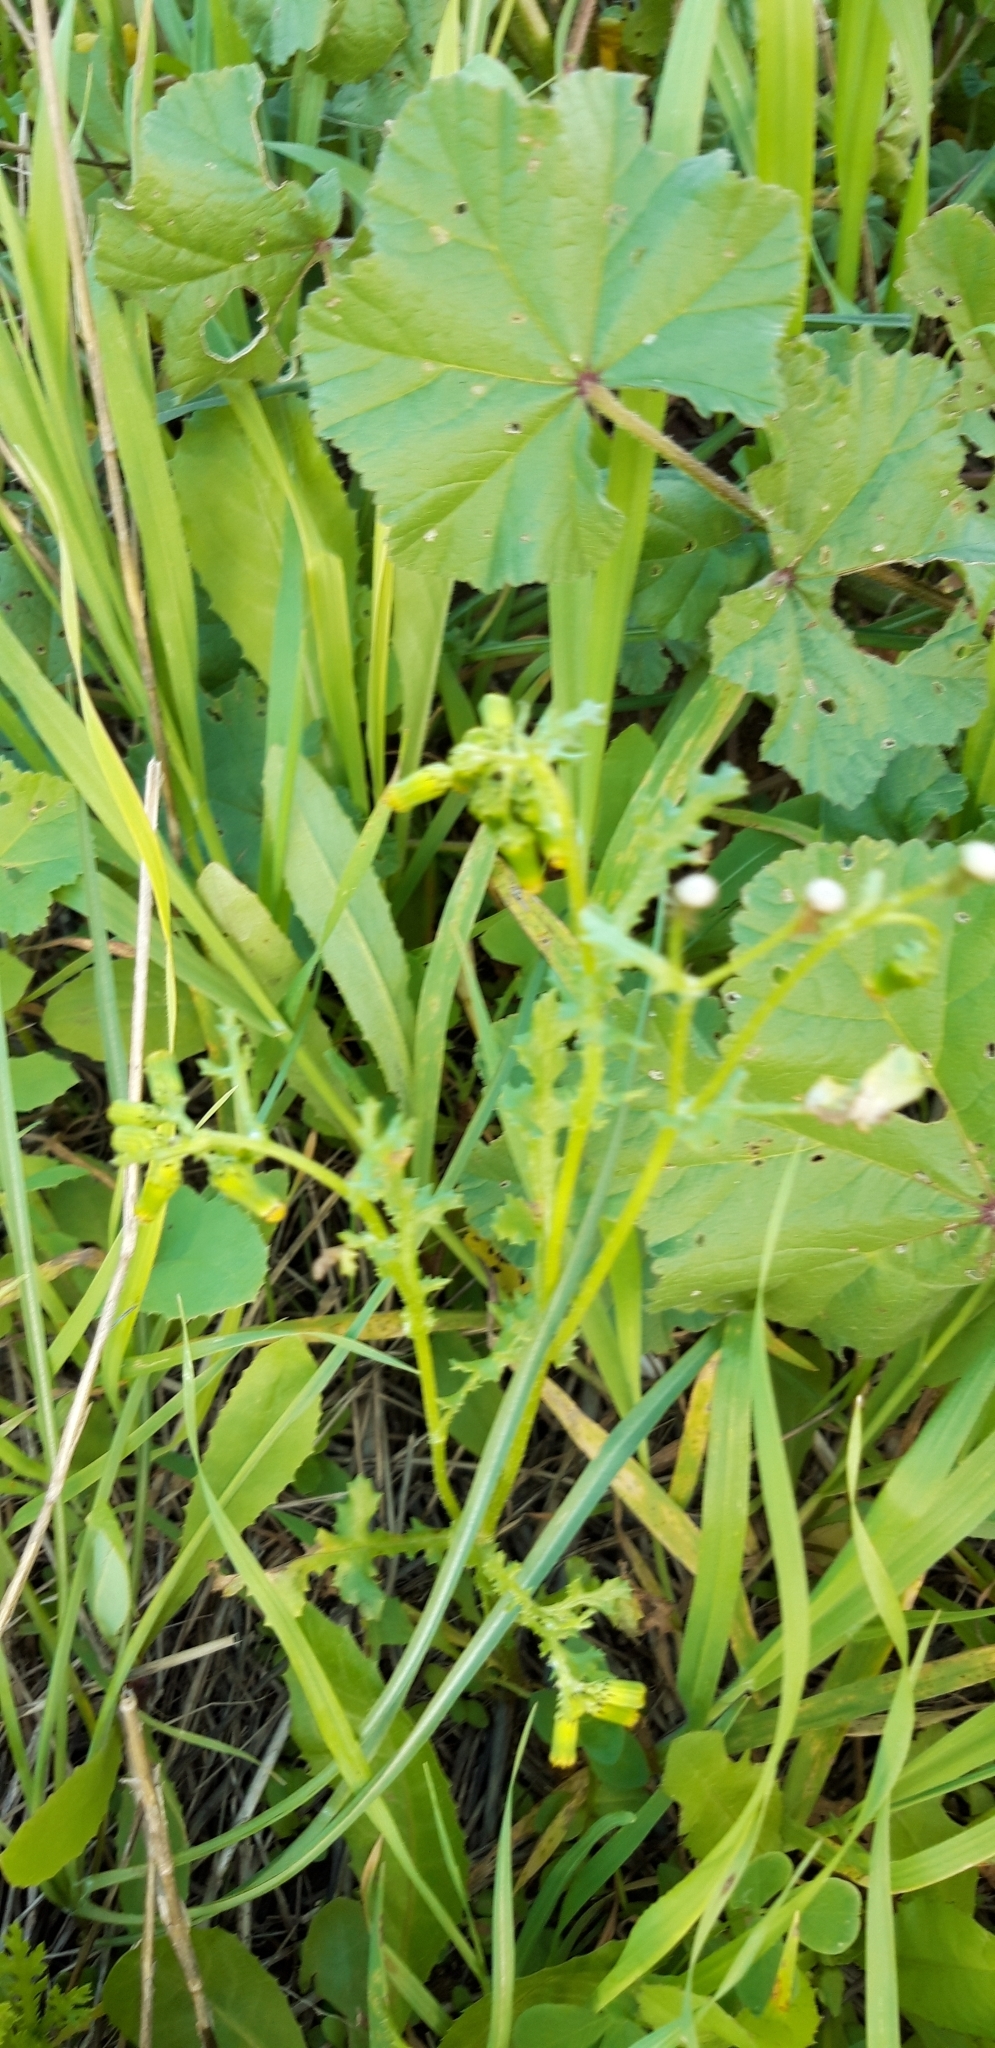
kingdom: Plantae
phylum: Tracheophyta
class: Magnoliopsida
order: Asterales
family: Asteraceae
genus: Senecio
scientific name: Senecio vulgaris
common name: Old-man-in-the-spring
